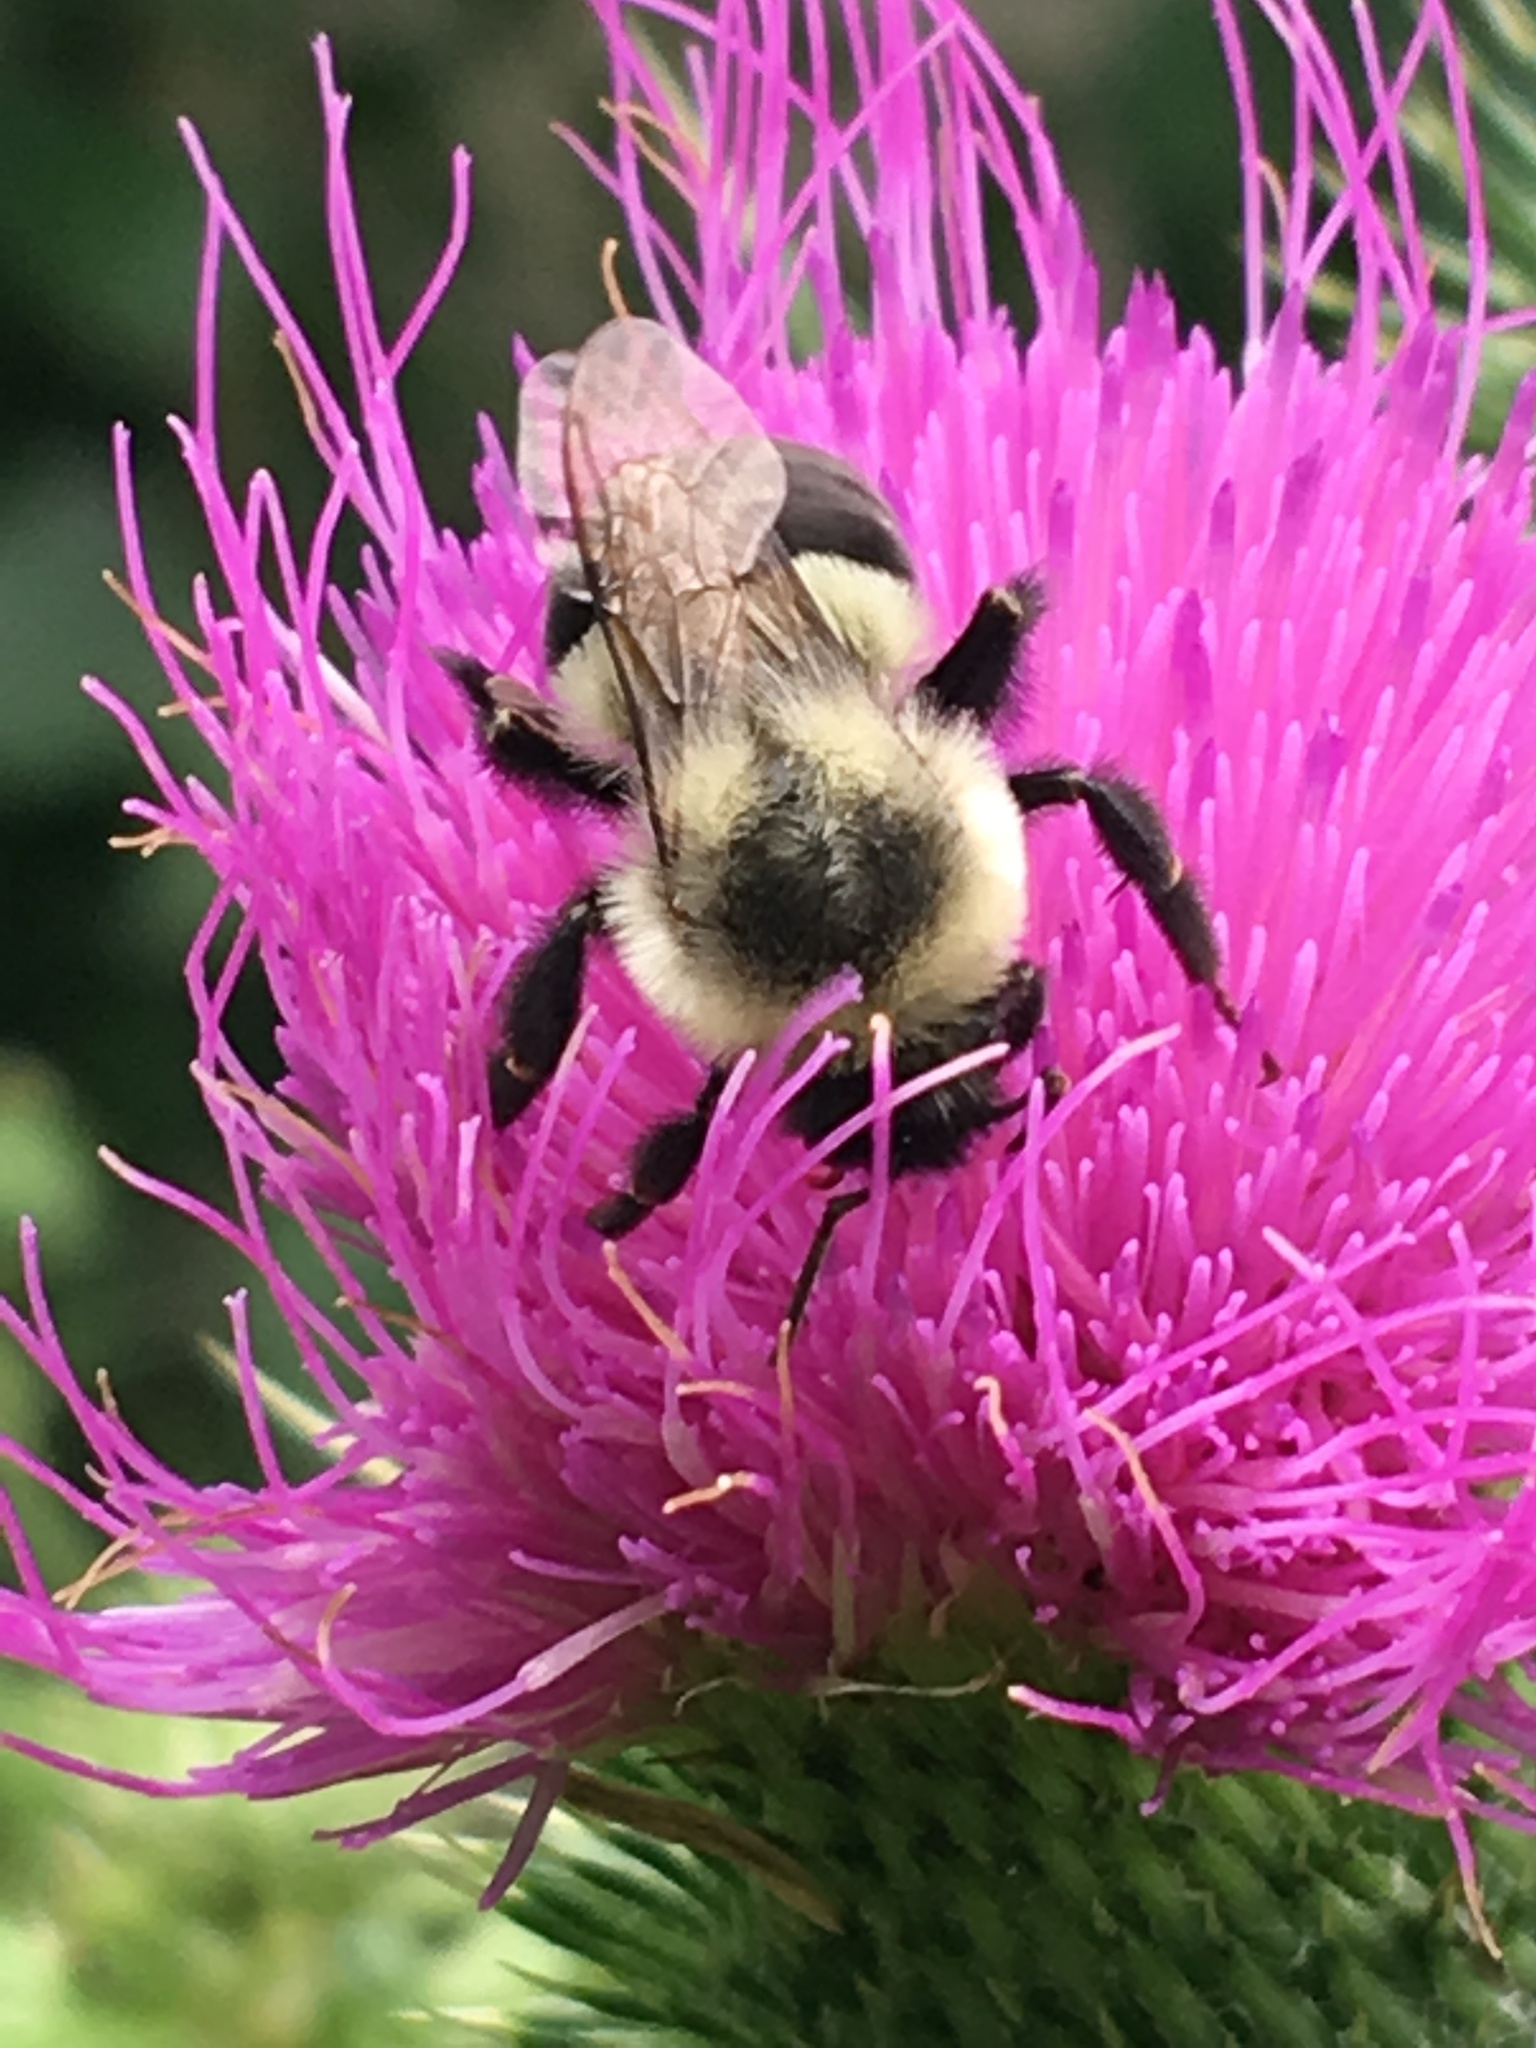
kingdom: Animalia
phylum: Arthropoda
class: Insecta
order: Hymenoptera
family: Apidae
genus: Bombus
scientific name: Bombus impatiens
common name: Common eastern bumble bee
